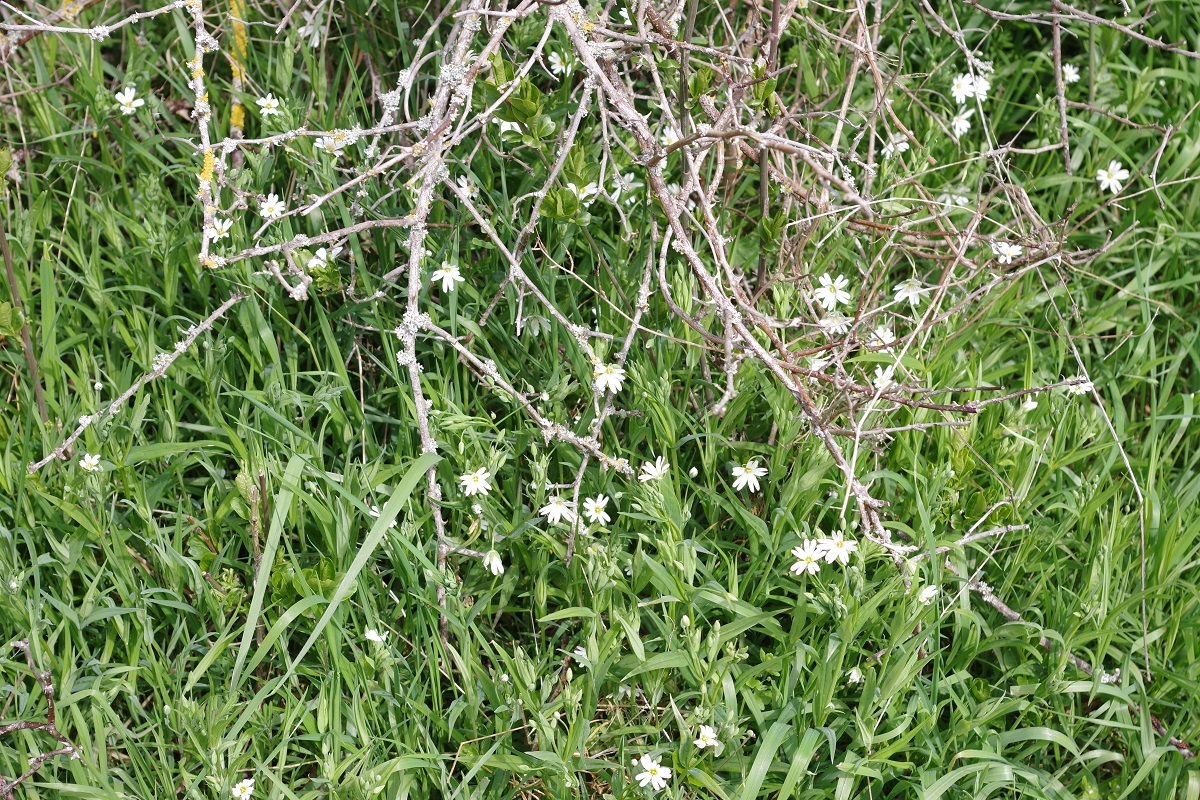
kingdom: Plantae
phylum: Tracheophyta
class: Magnoliopsida
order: Caryophyllales
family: Caryophyllaceae
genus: Rabelera
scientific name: Rabelera holostea
